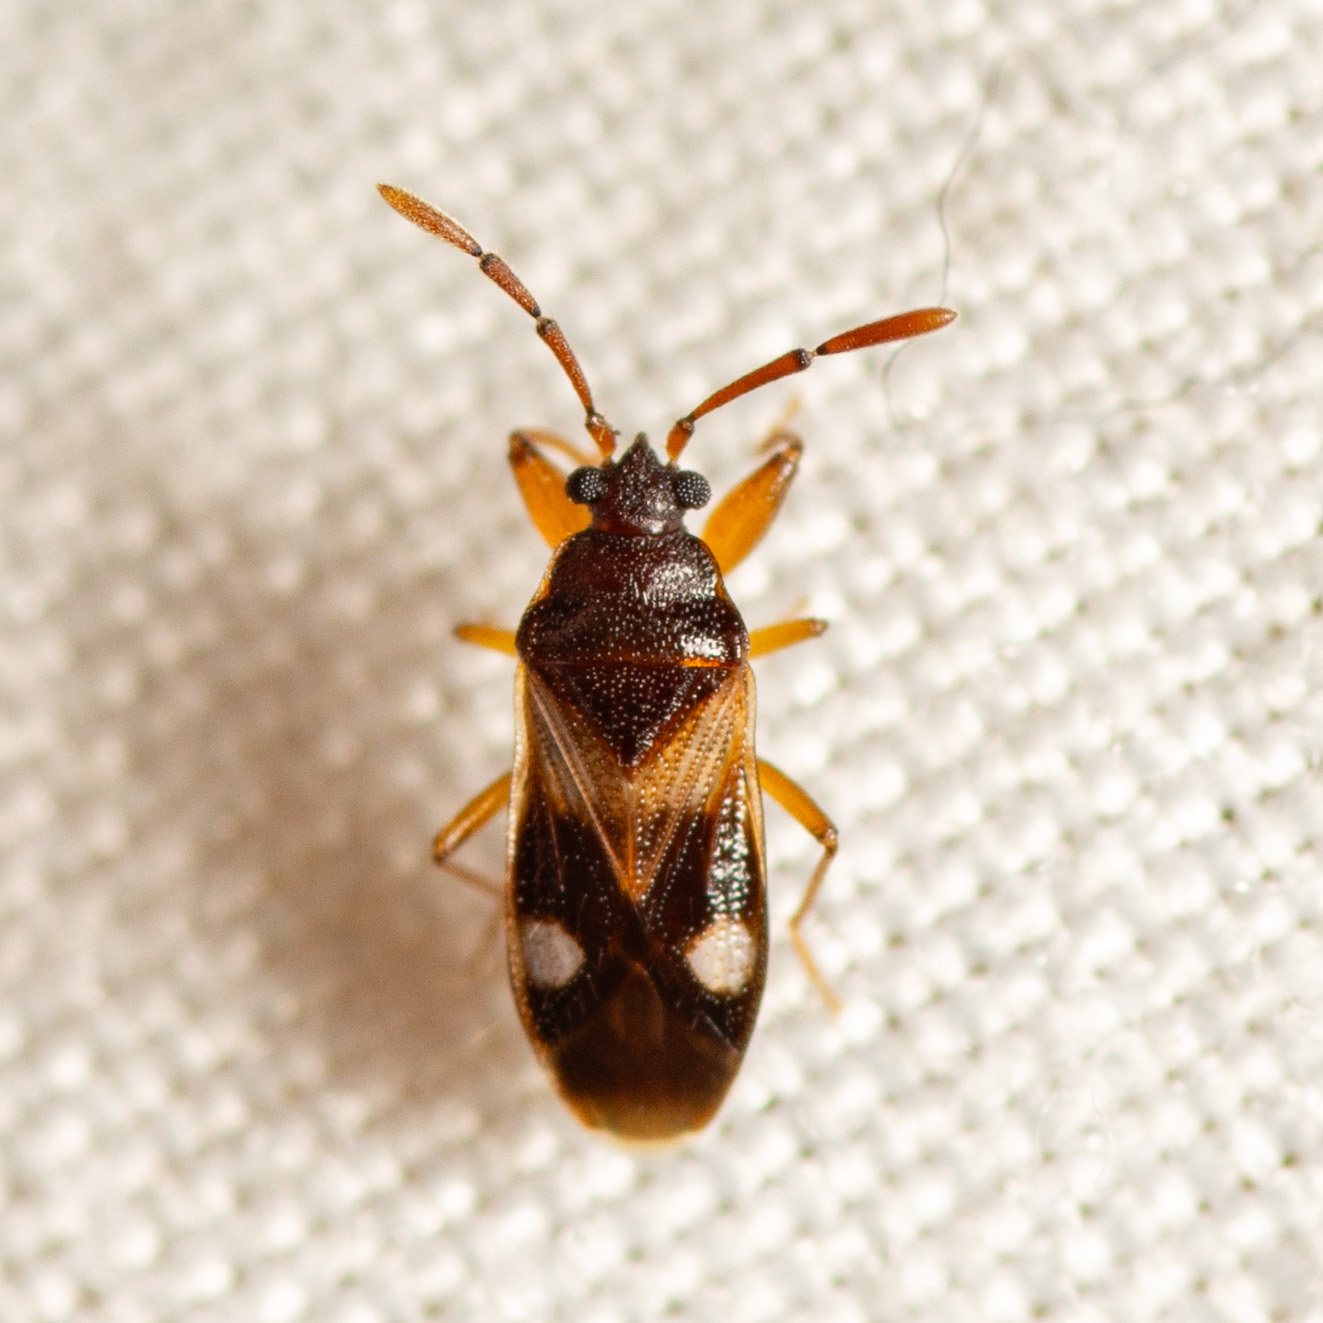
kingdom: Animalia
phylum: Arthropoda
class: Insecta
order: Hemiptera
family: Rhyparochromidae
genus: Tempyra
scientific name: Tempyra biguttula
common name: Seed bug
